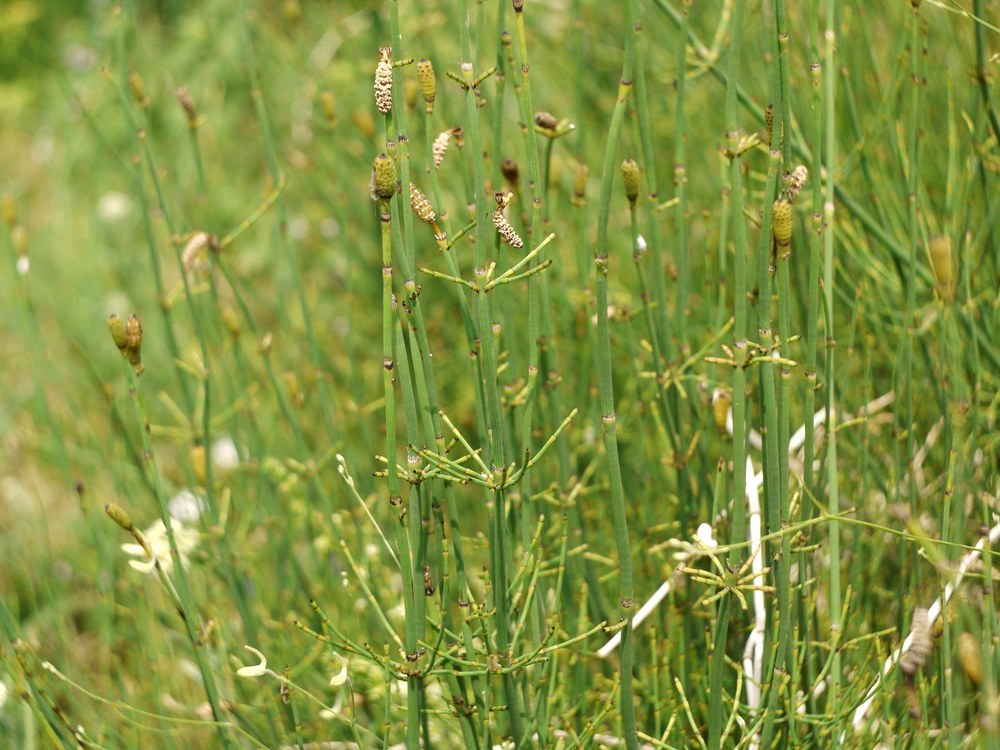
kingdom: Plantae
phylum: Tracheophyta
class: Polypodiopsida
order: Equisetales
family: Equisetaceae
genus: Equisetum
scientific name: Equisetum ramosissimum
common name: Branched horsetail
